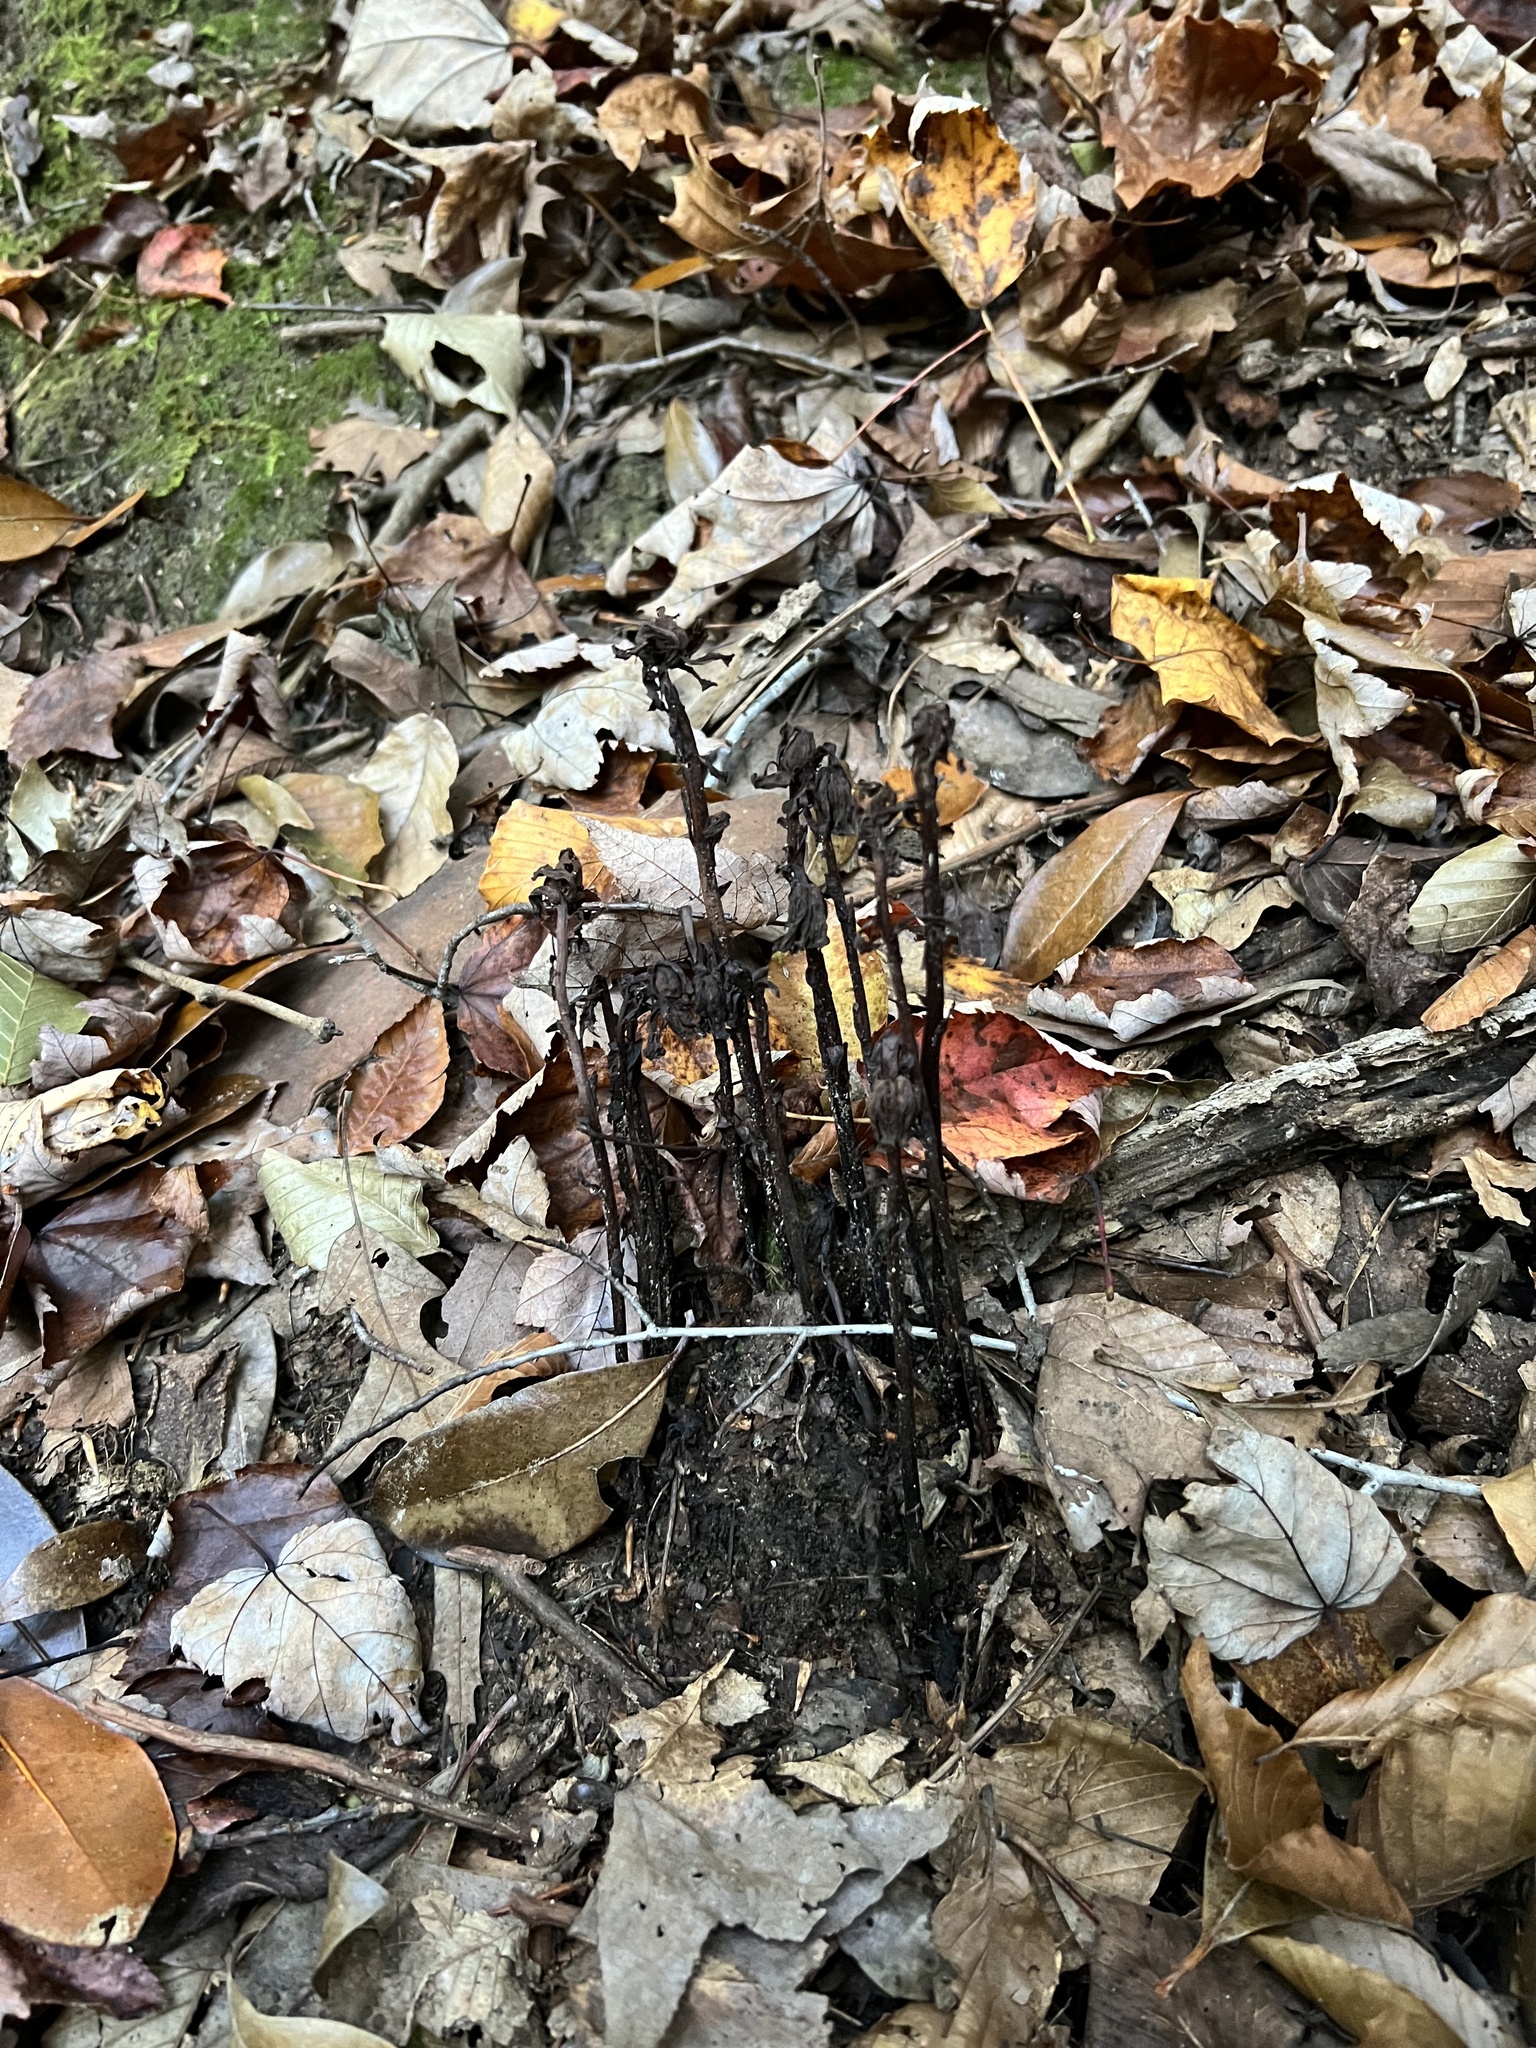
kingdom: Plantae
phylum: Tracheophyta
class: Magnoliopsida
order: Ericales
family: Ericaceae
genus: Monotropa
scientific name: Monotropa uniflora
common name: Convulsion root
